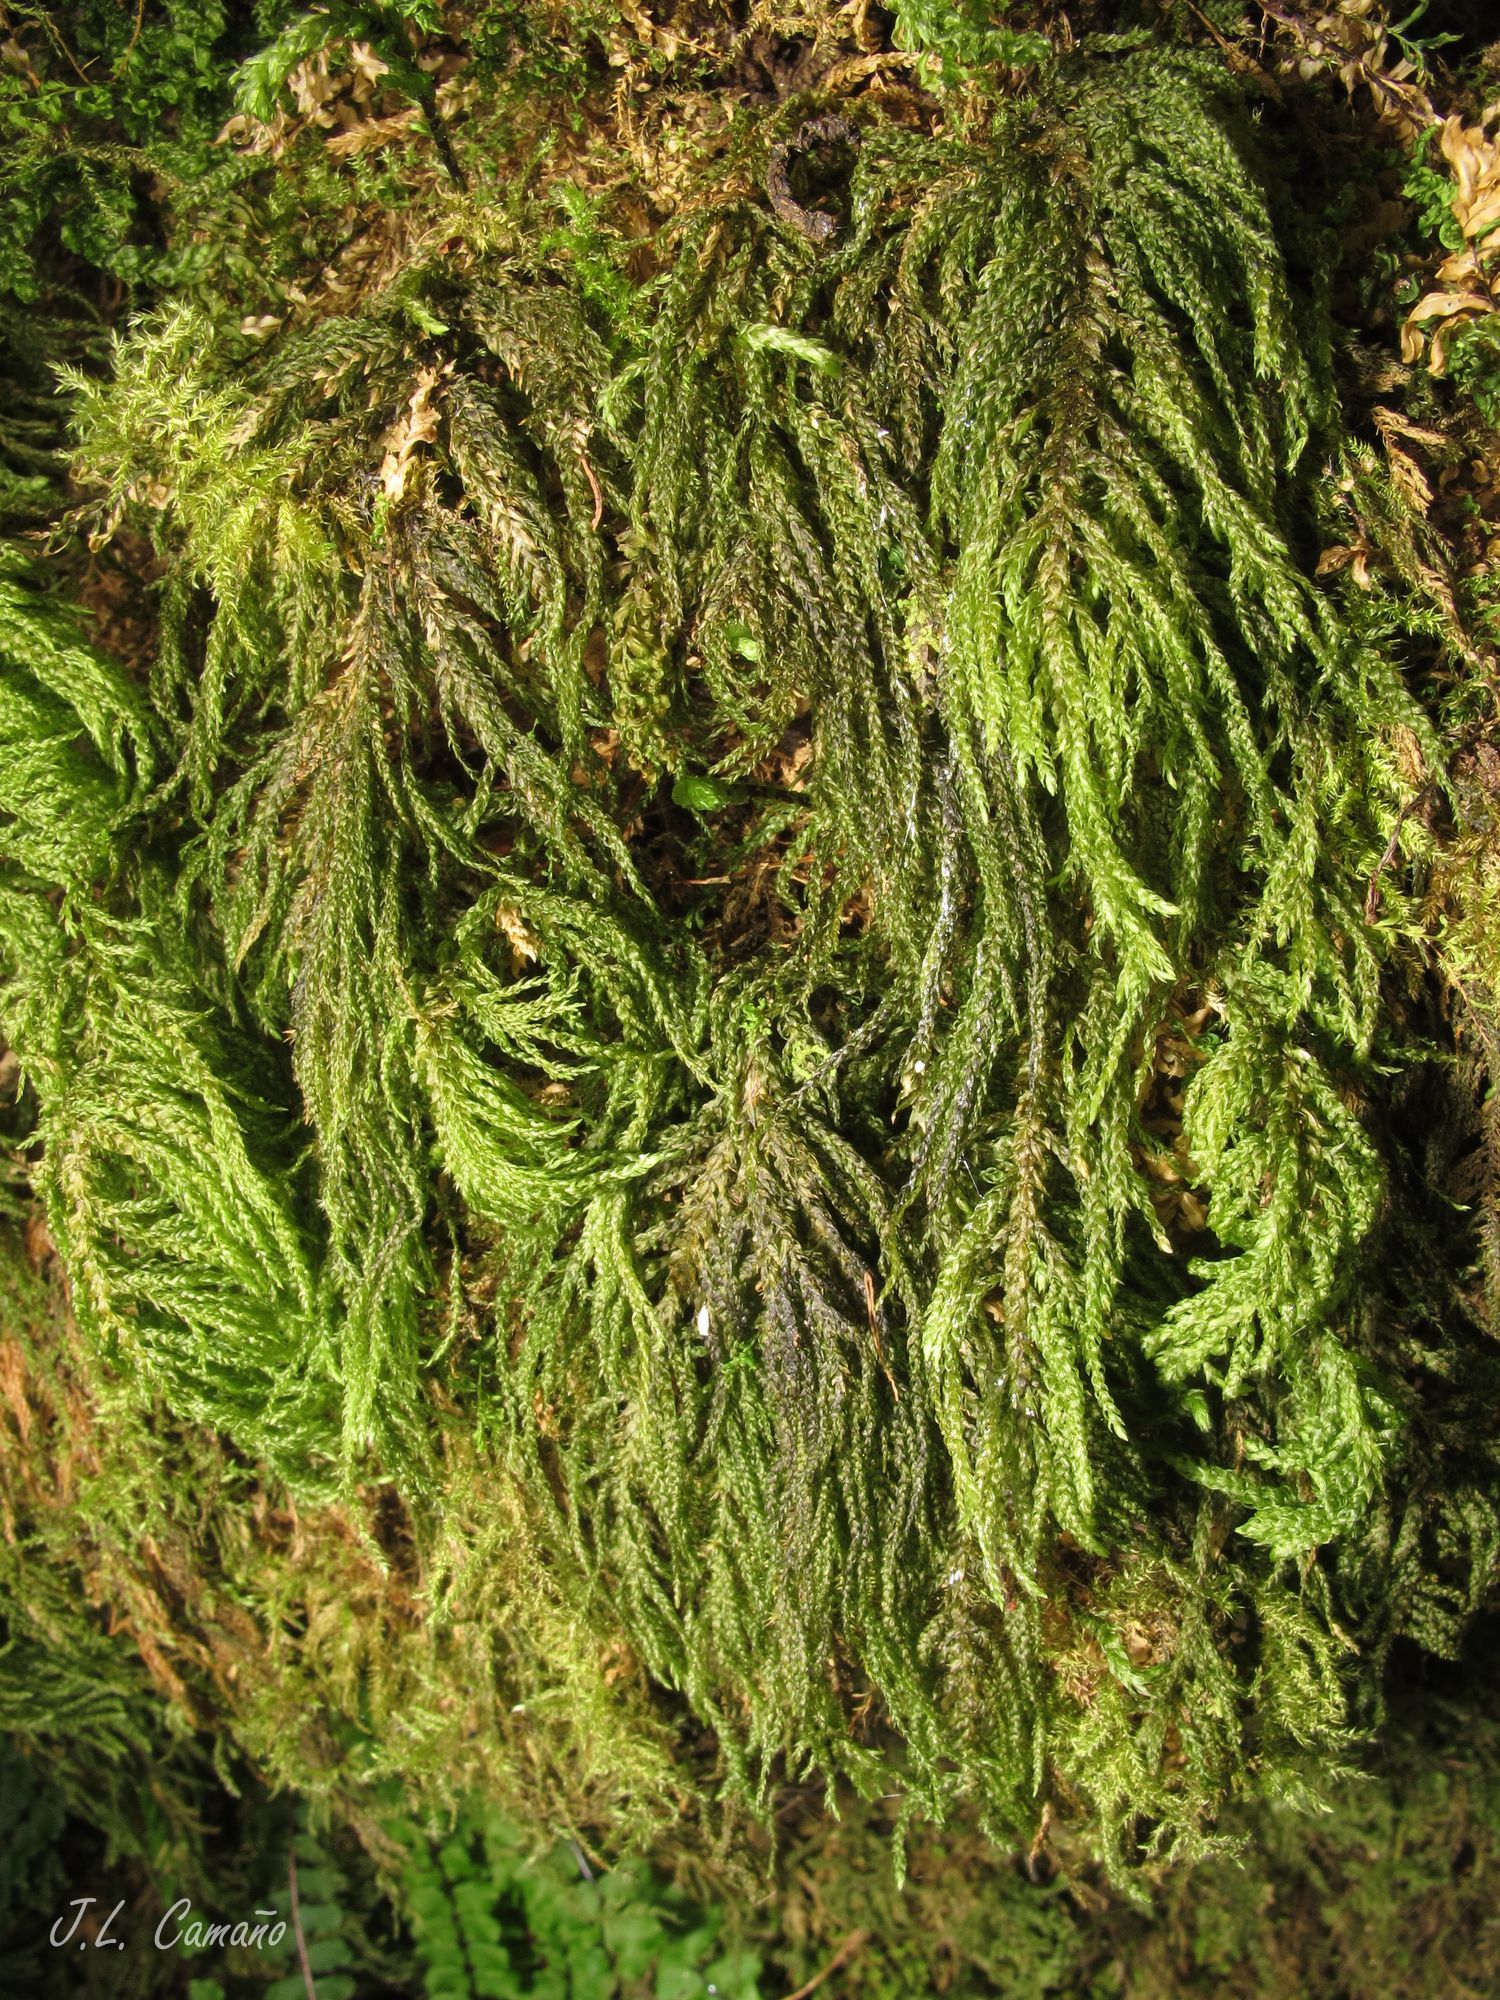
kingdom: Plantae
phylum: Bryophyta
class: Bryopsida
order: Hypnales
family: Neckeraceae
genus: Thamnobryum
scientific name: Thamnobryum alopecurum
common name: Fox-tail feather-moss
